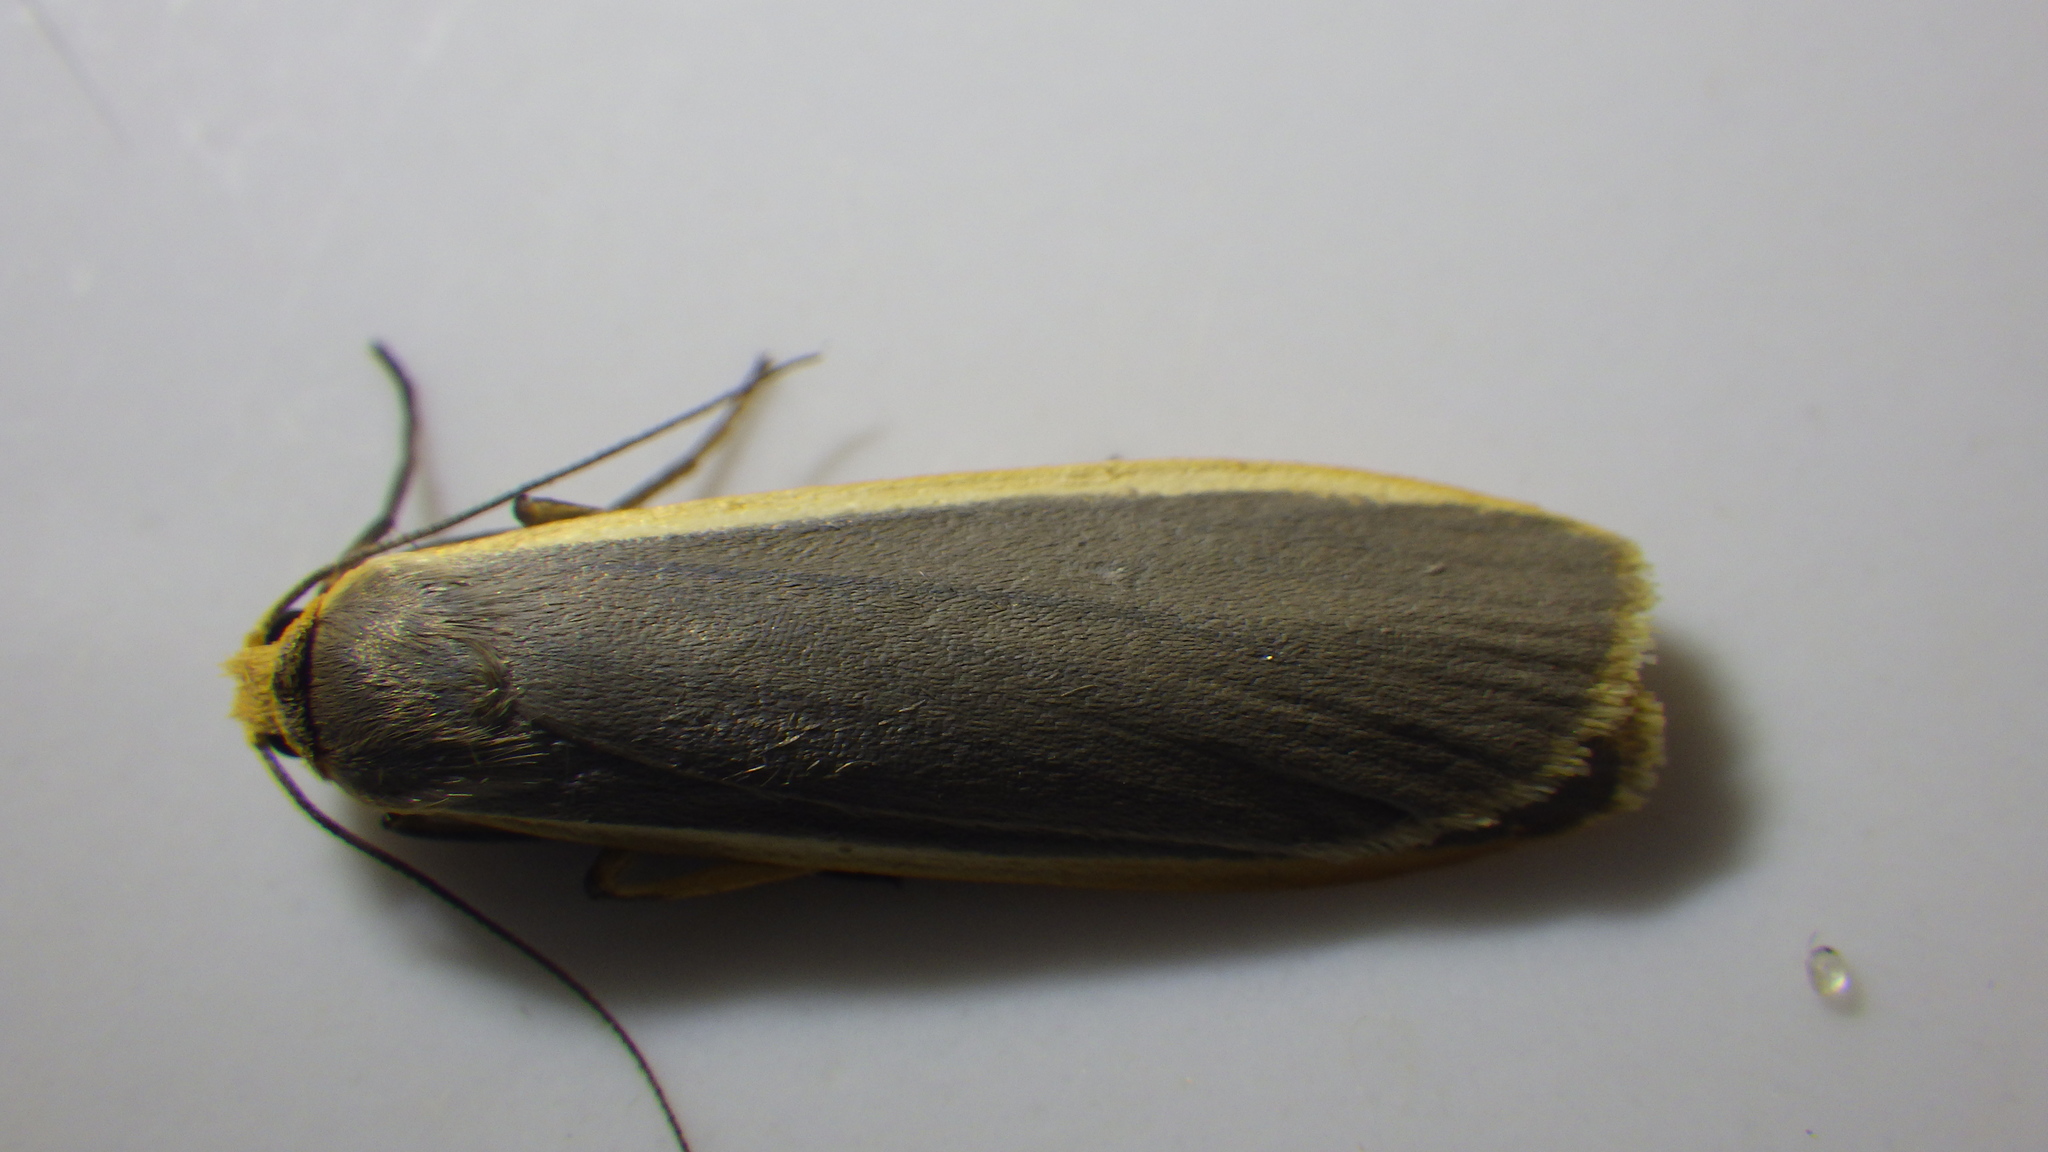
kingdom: Animalia
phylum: Arthropoda
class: Insecta
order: Lepidoptera
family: Erebidae
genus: Nyea
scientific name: Nyea lurideola
